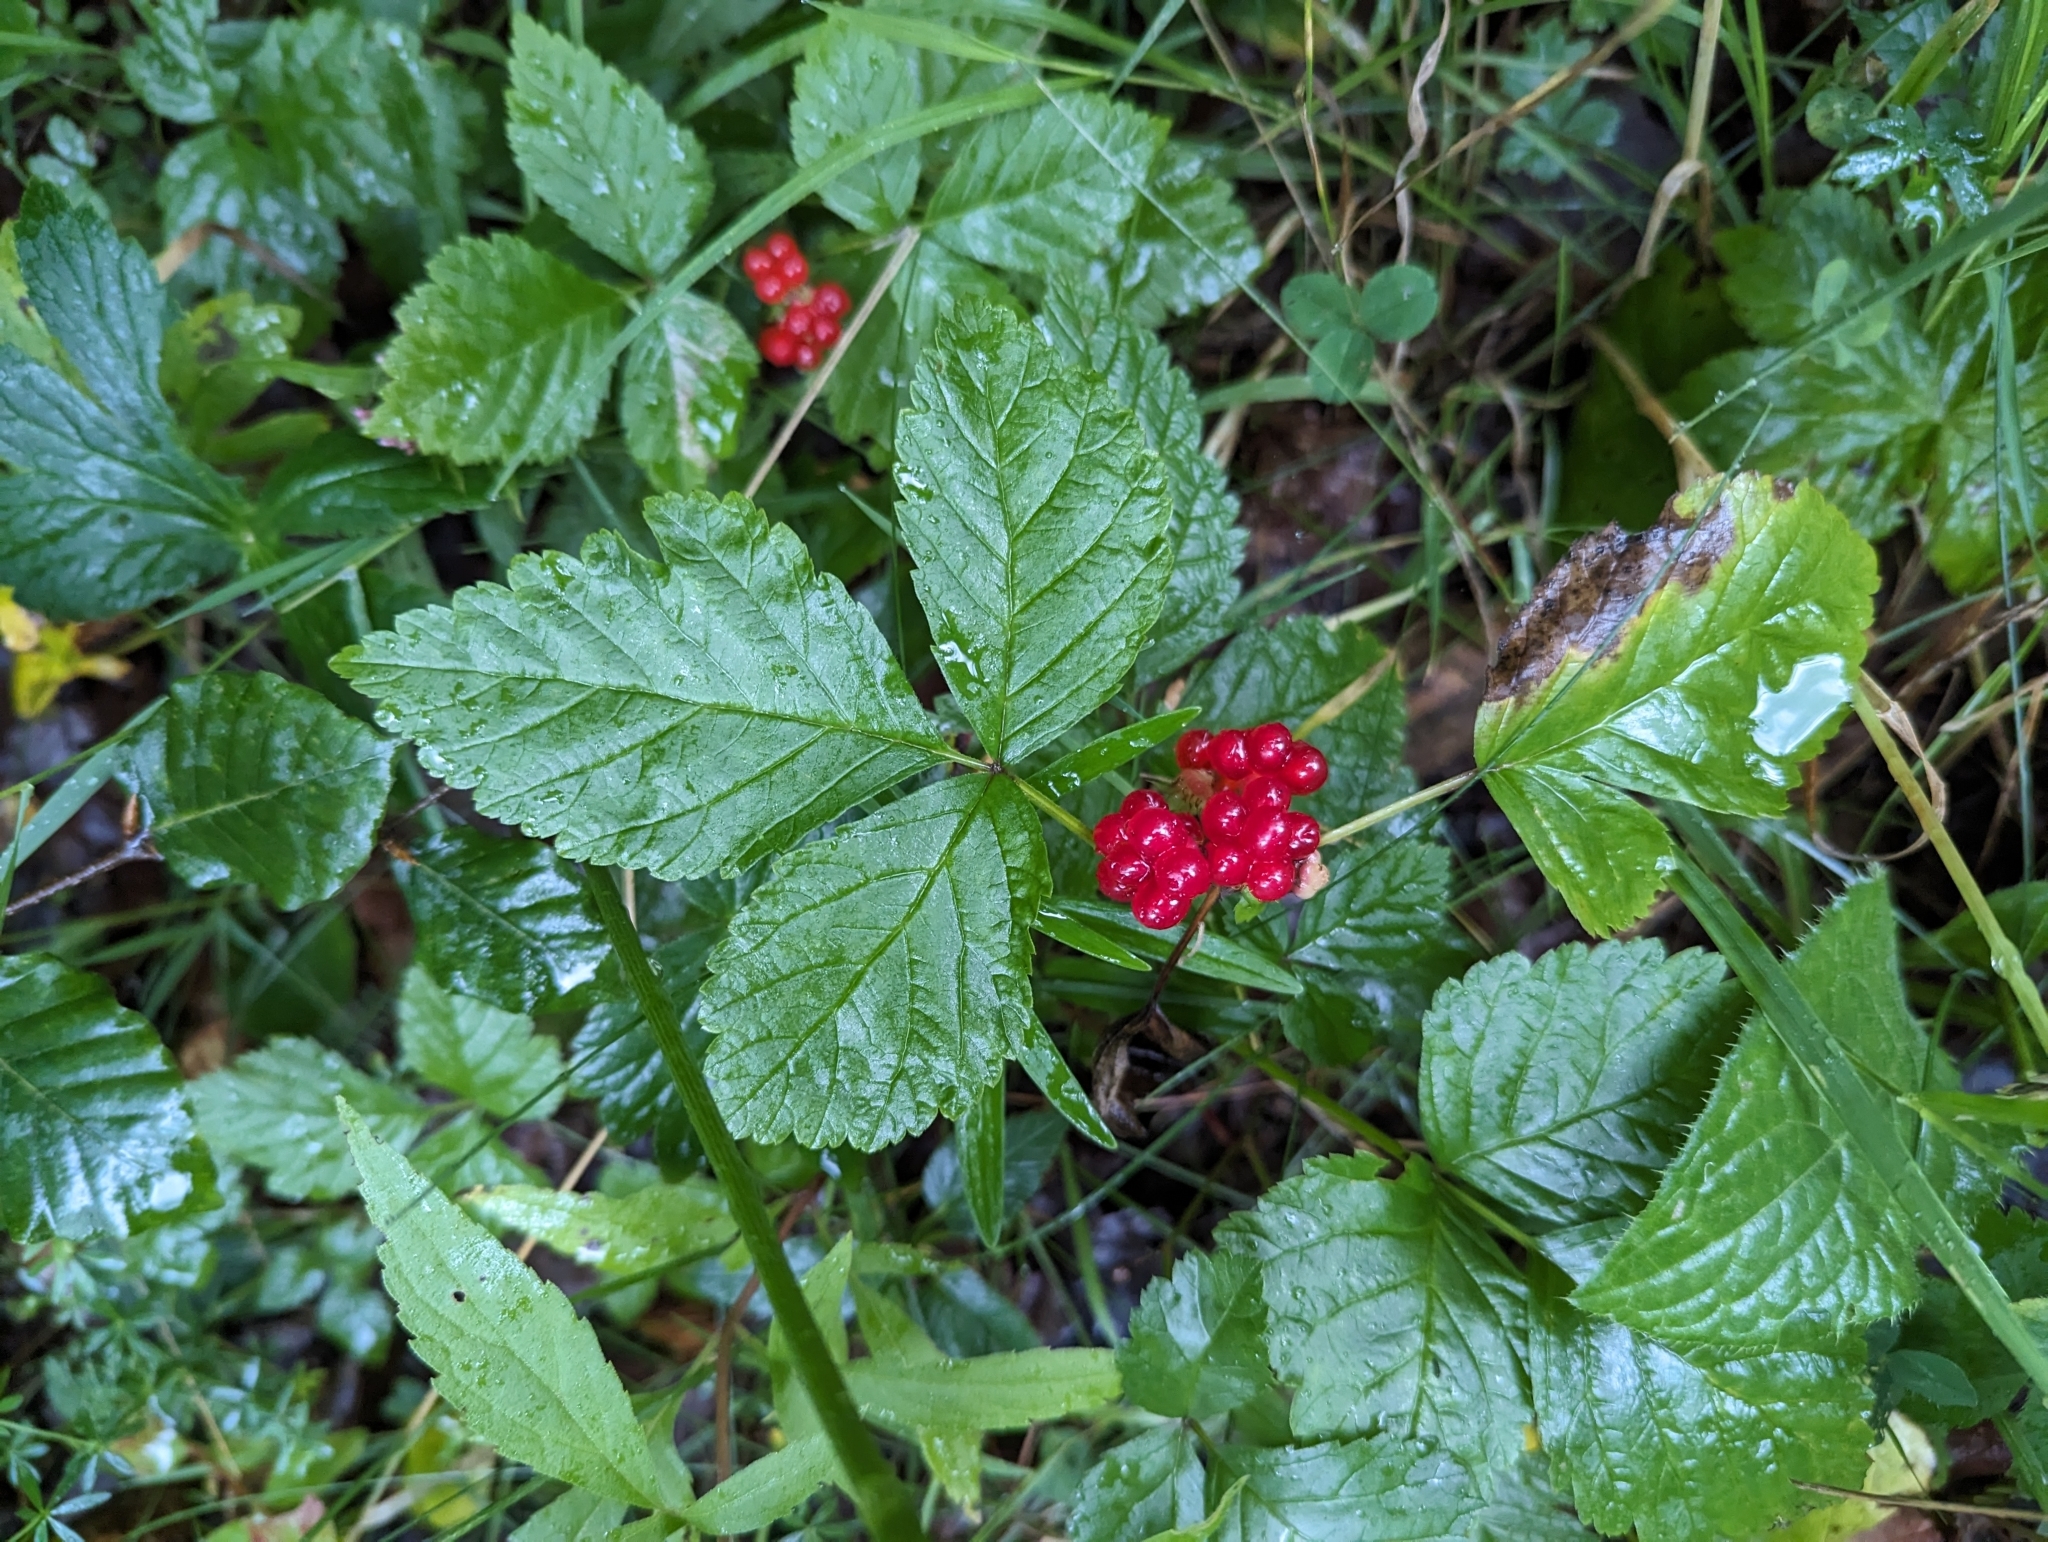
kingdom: Plantae
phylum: Tracheophyta
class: Magnoliopsida
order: Rosales
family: Rosaceae
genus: Rubus
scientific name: Rubus saxatilis
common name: Stone bramble
